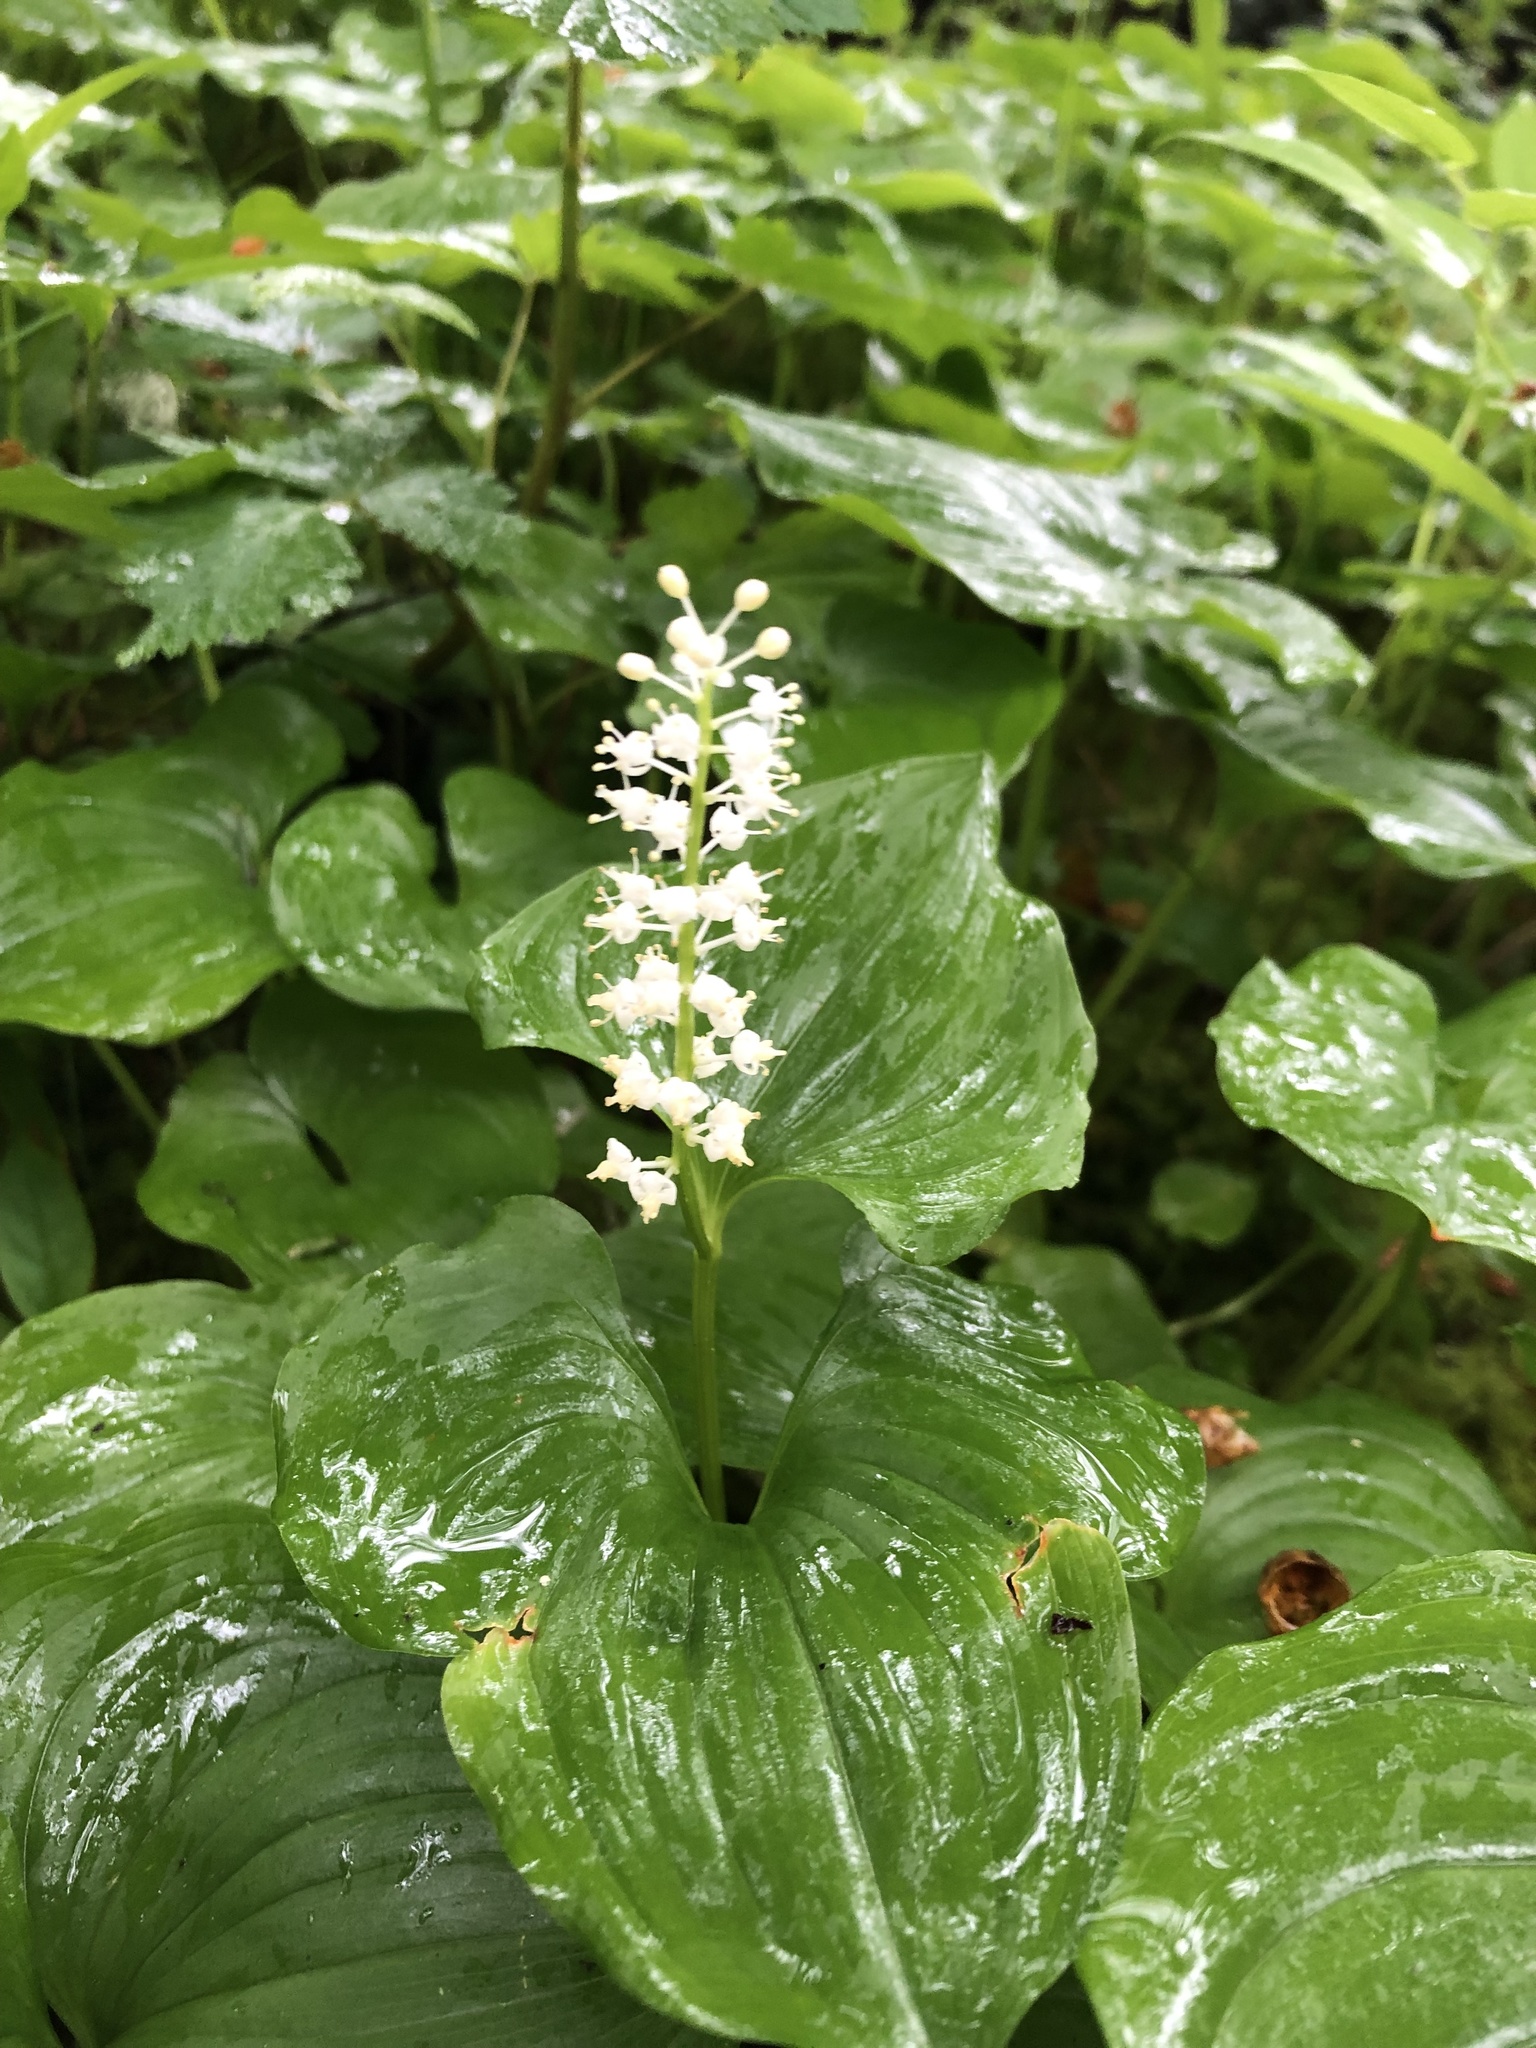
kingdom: Plantae
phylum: Tracheophyta
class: Liliopsida
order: Asparagales
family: Asparagaceae
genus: Maianthemum
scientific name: Maianthemum dilatatum
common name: False lily-of-the-valley
